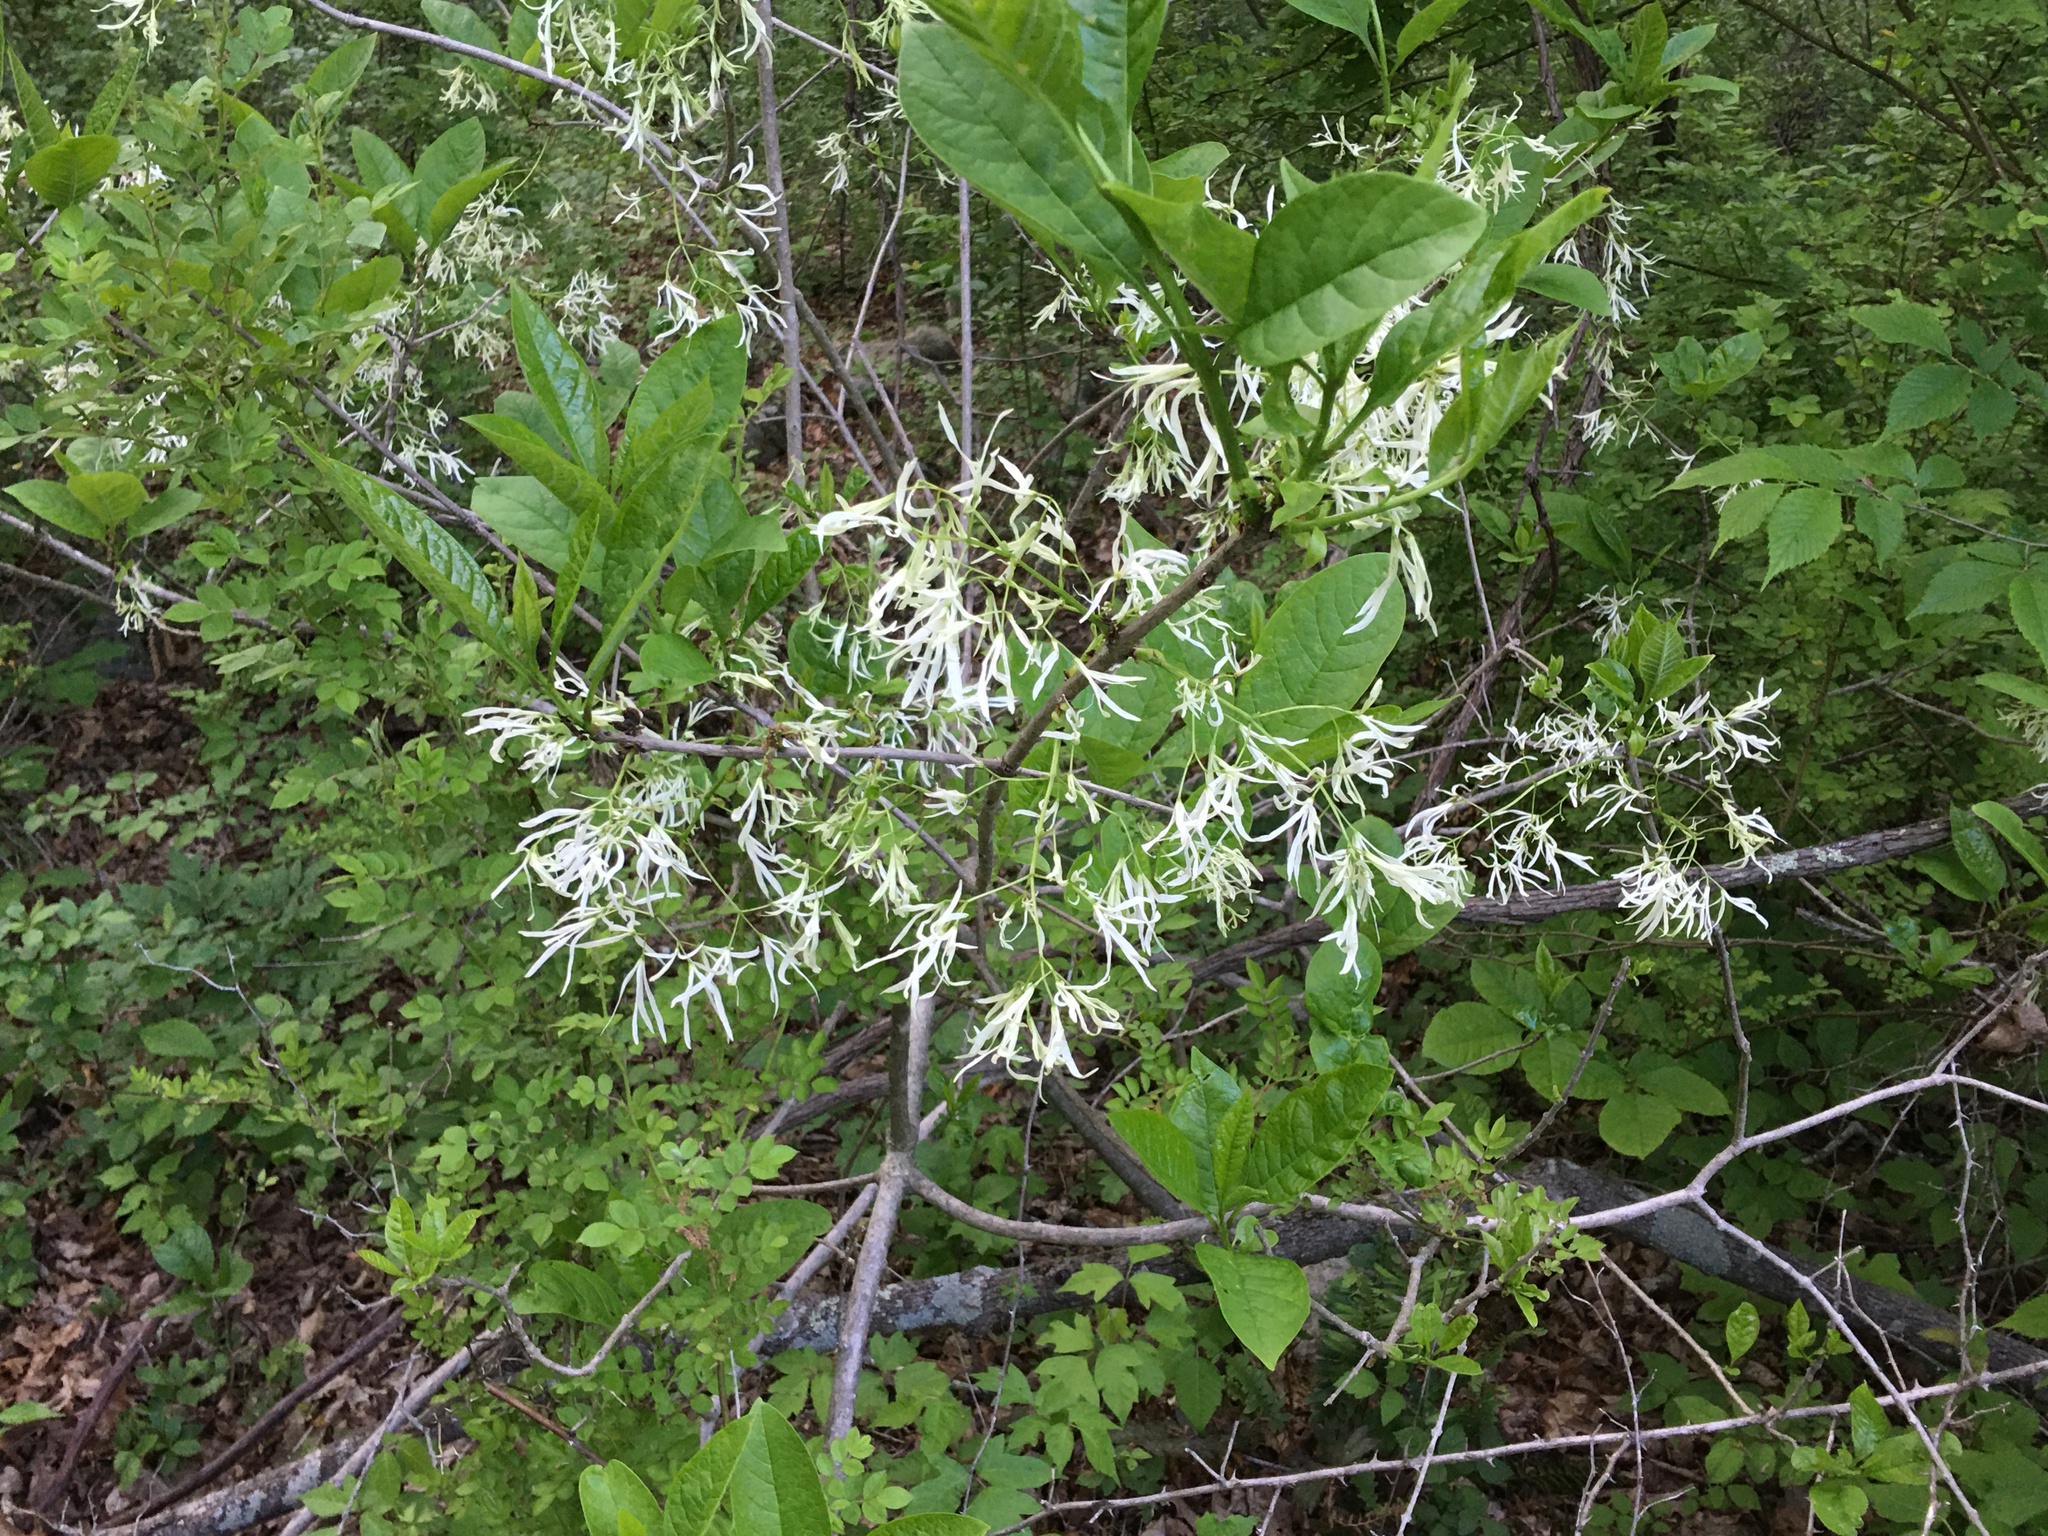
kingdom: Plantae
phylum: Tracheophyta
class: Magnoliopsida
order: Lamiales
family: Oleaceae
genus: Chionanthus
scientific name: Chionanthus virginicus
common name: American fringetree
